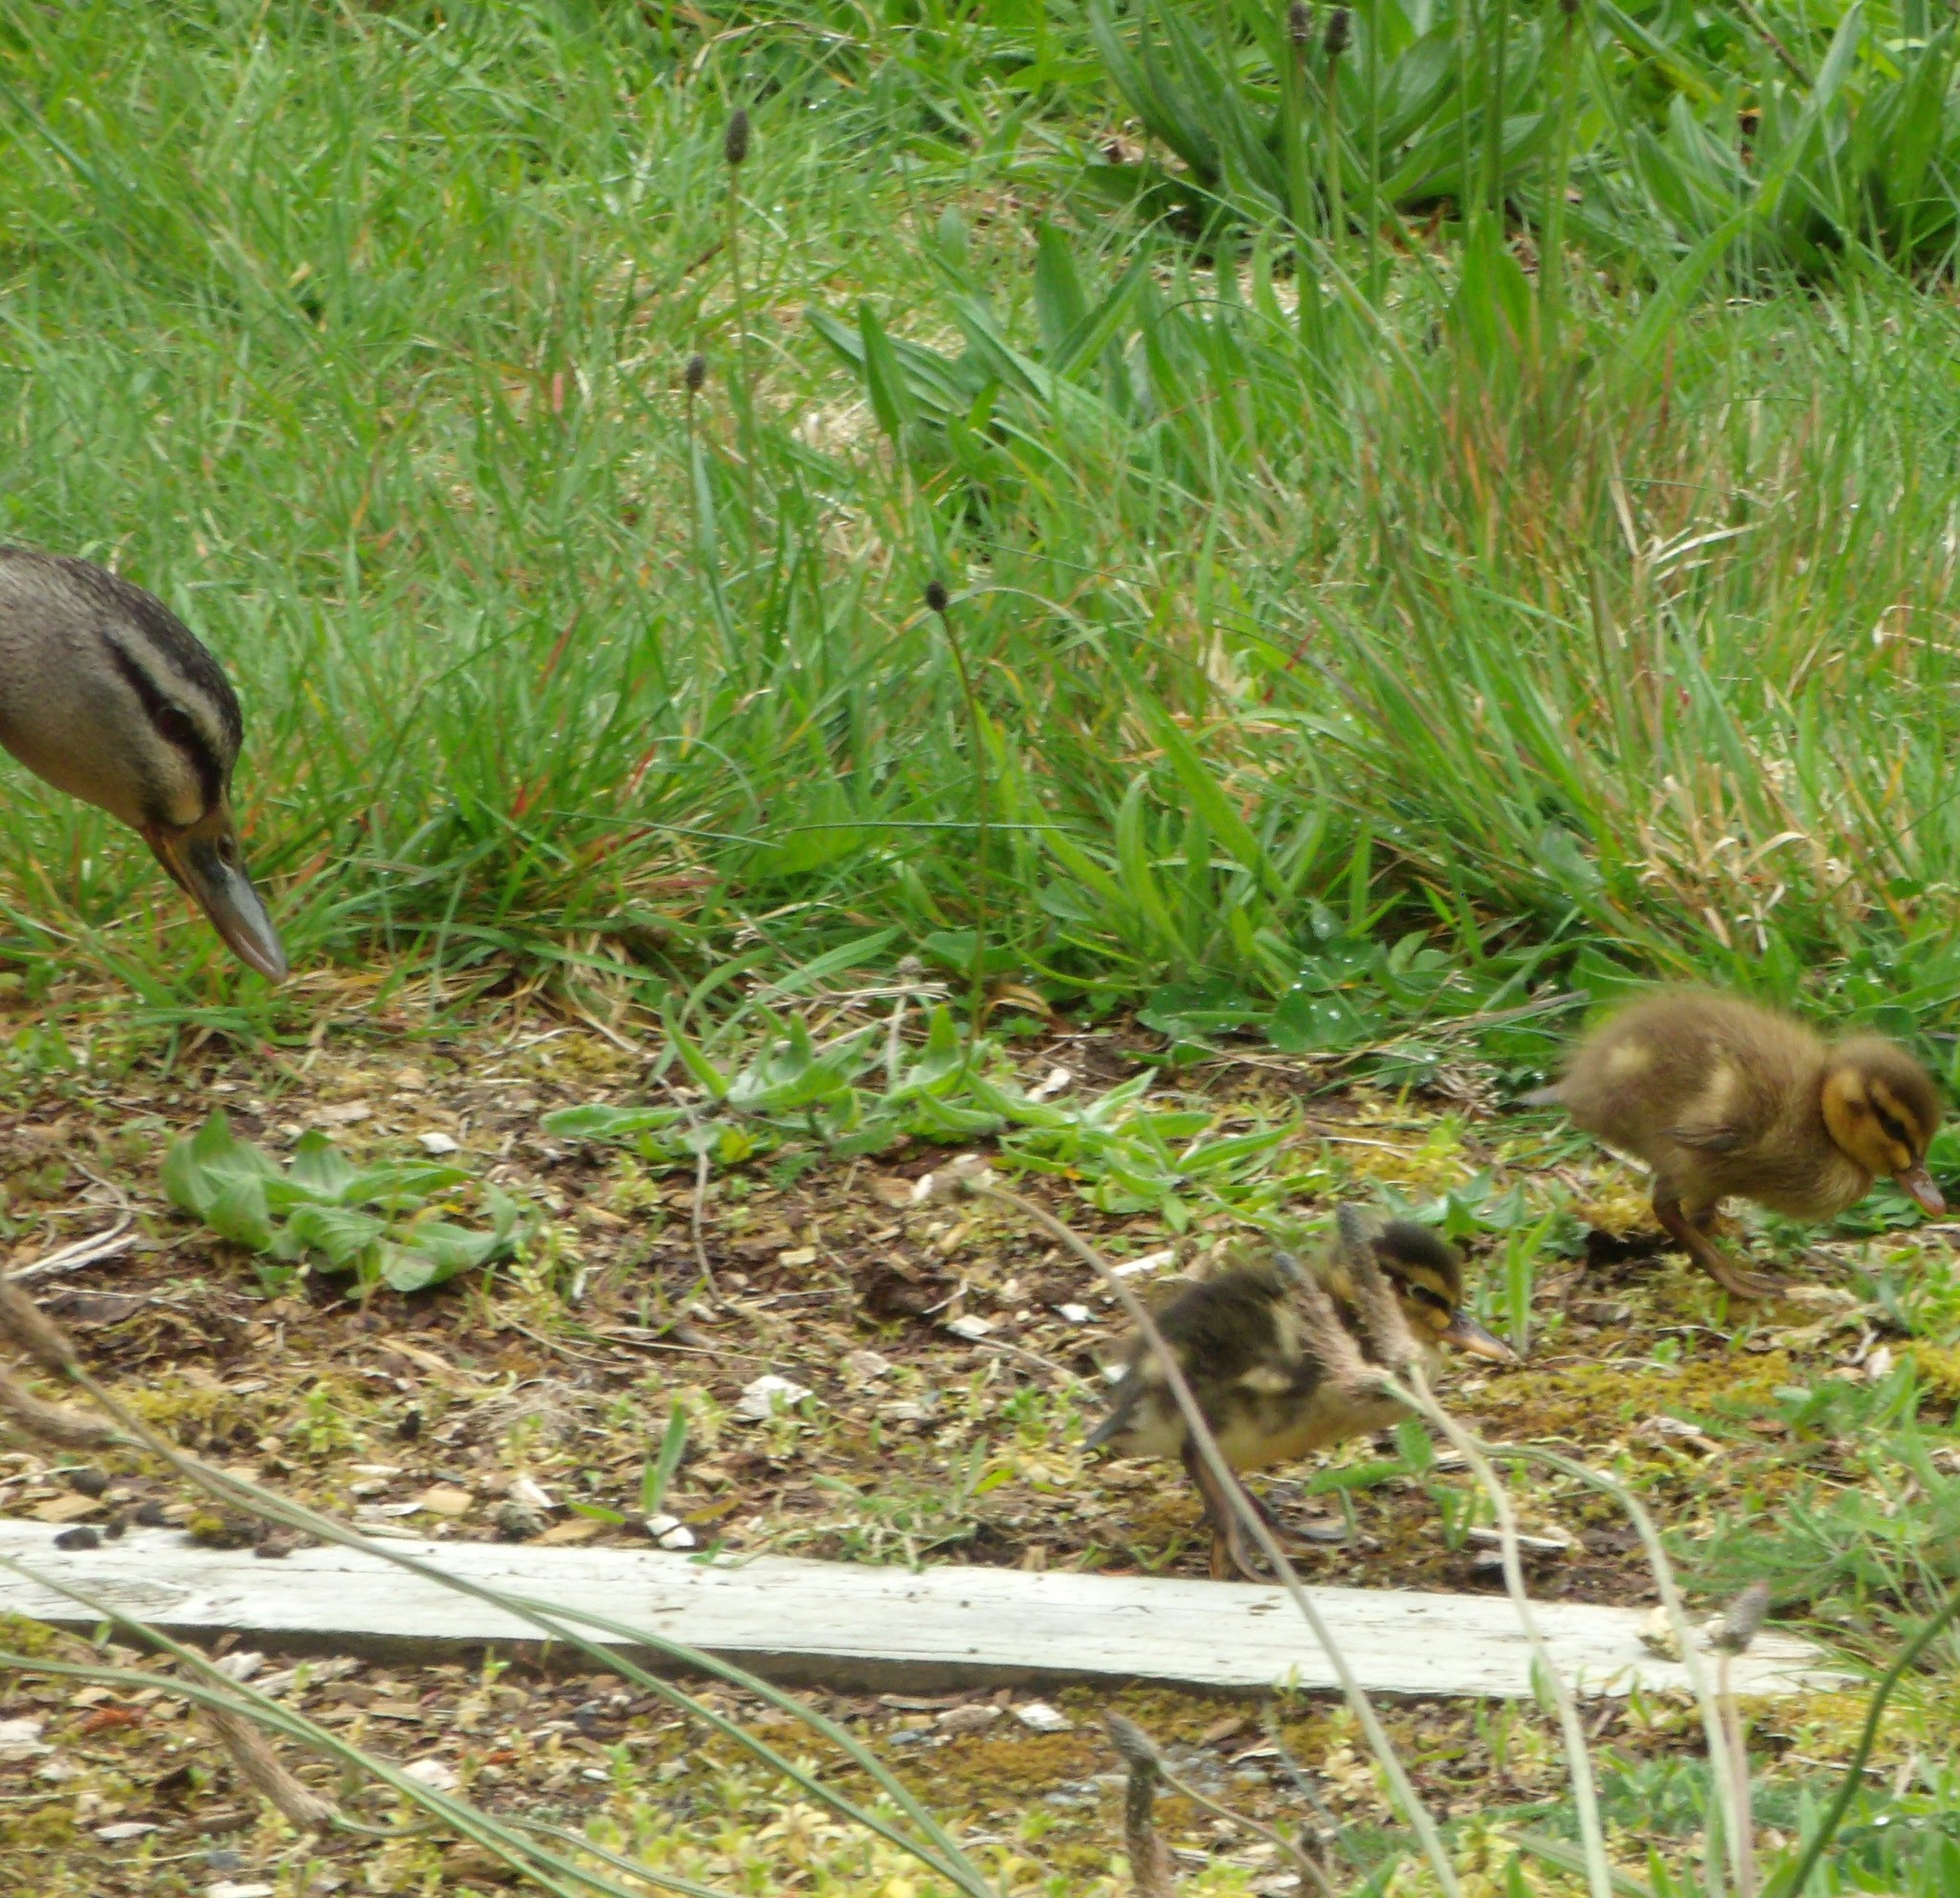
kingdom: Animalia
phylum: Chordata
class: Aves
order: Anseriformes
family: Anatidae
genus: Anas
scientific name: Anas
